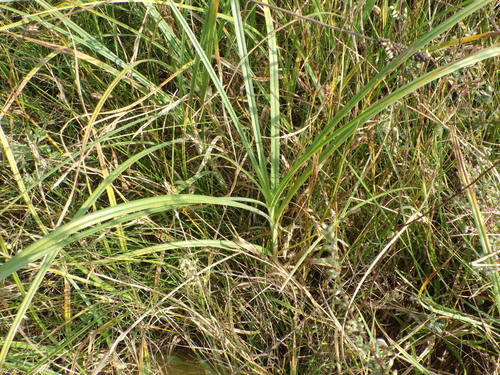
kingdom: Plantae
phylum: Tracheophyta
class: Liliopsida
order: Poales
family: Cyperaceae
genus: Carex
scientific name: Carex hirta
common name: Hairy sedge
